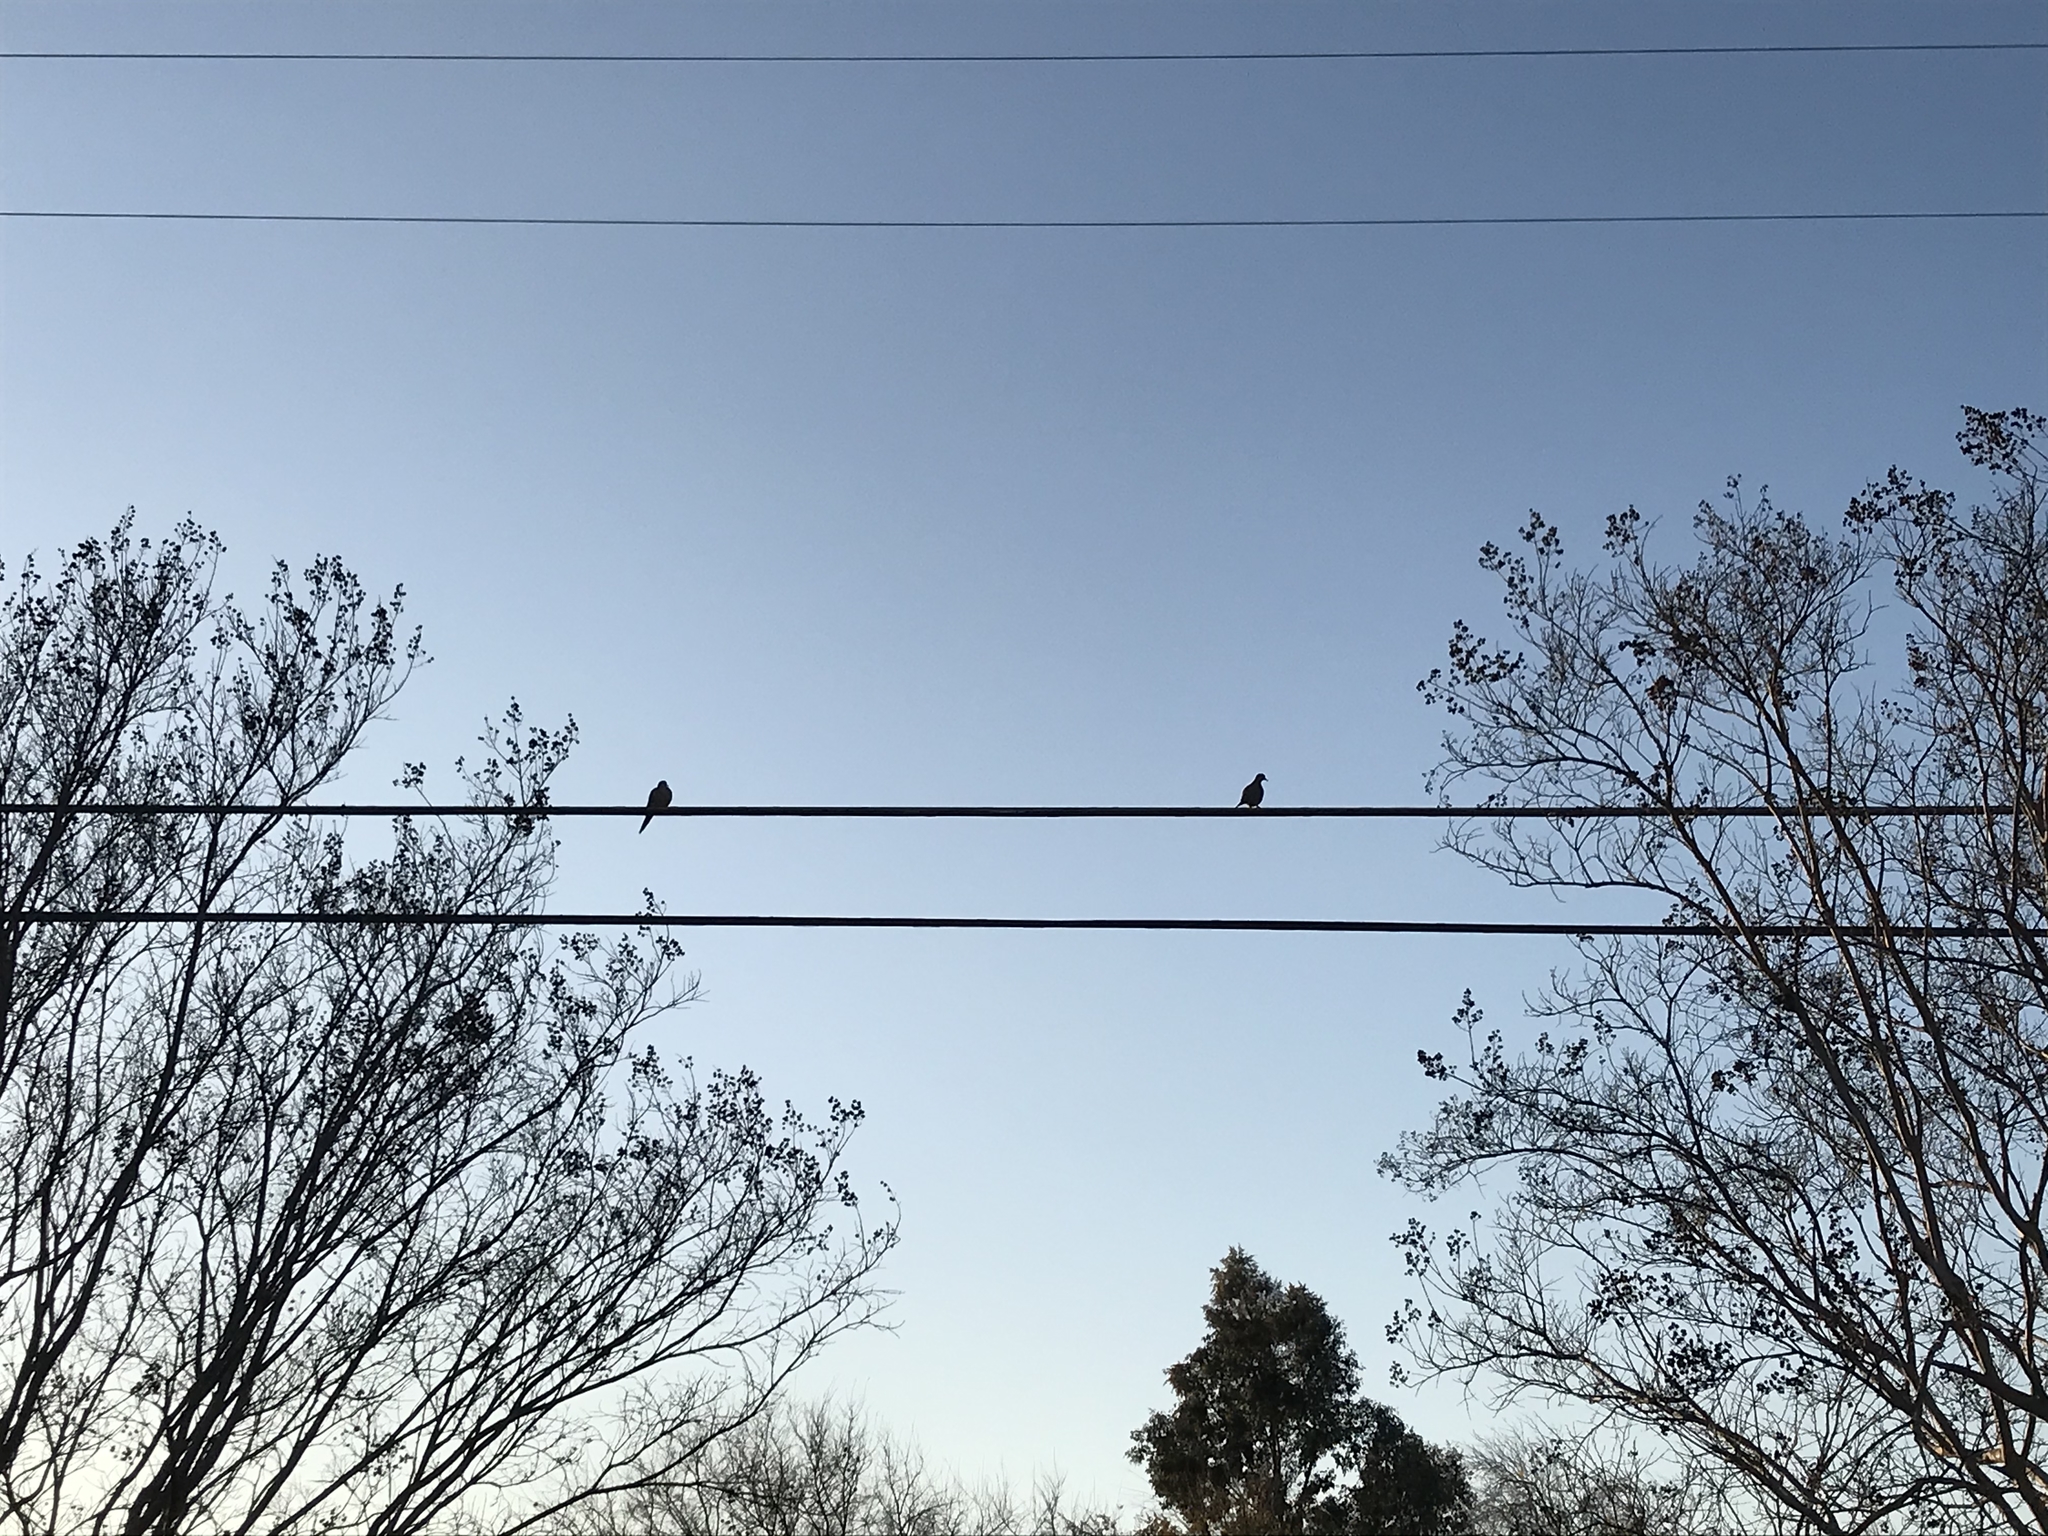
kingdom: Animalia
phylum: Chordata
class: Aves
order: Columbiformes
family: Columbidae
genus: Zenaida
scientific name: Zenaida macroura
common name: Mourning dove
